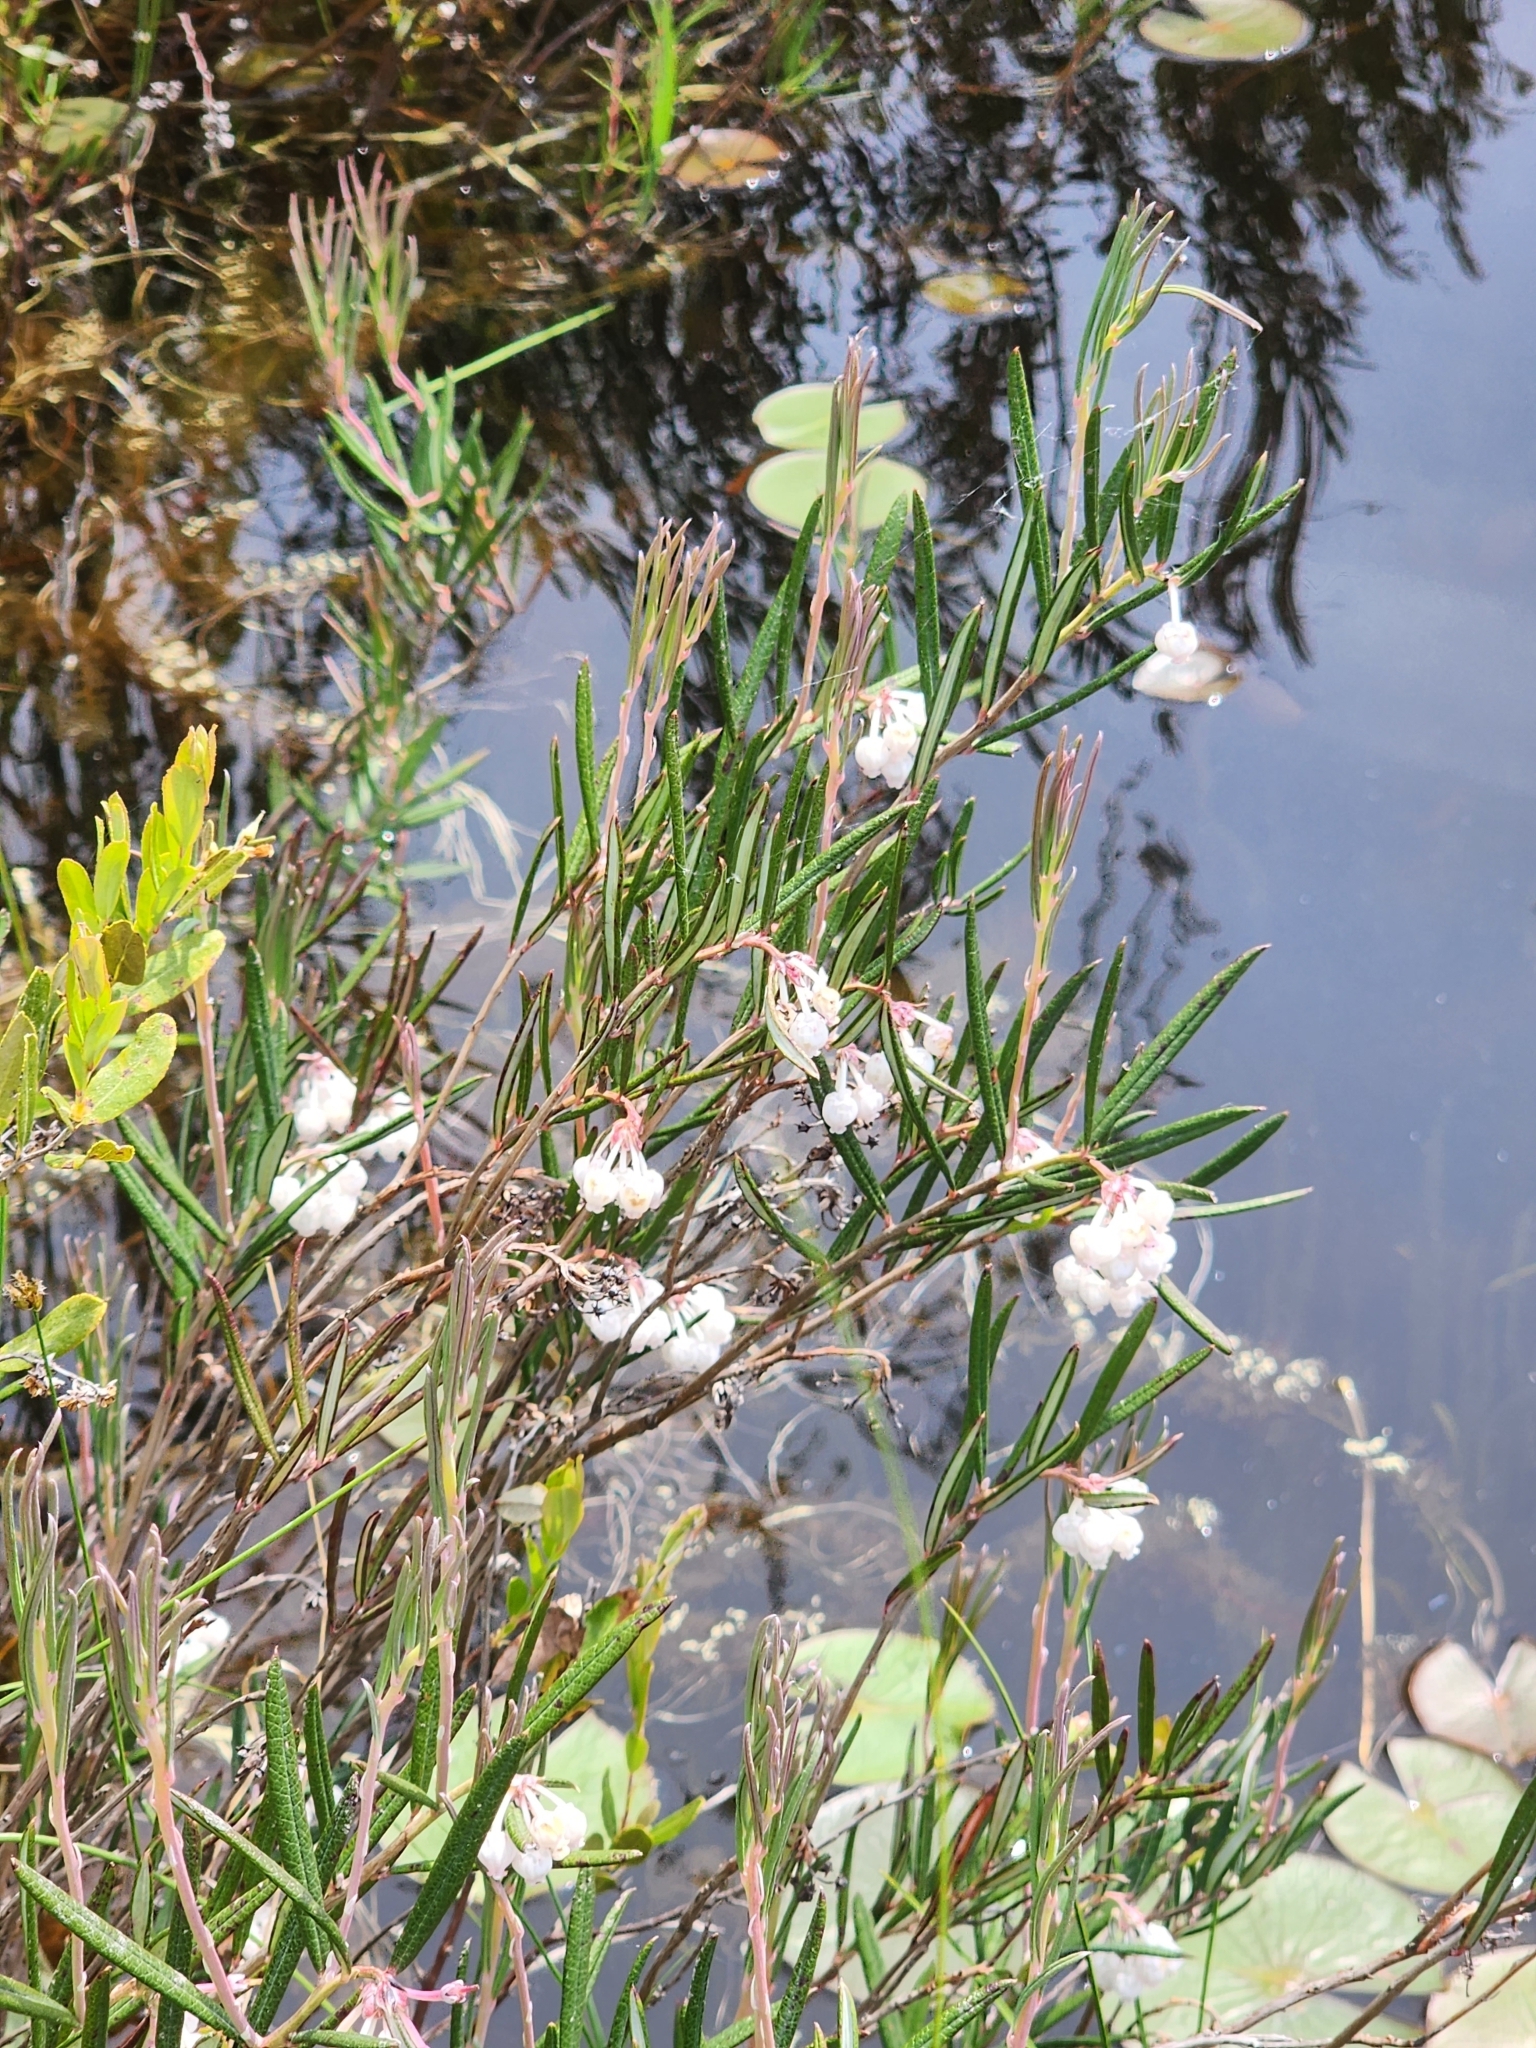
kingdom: Plantae
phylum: Tracheophyta
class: Magnoliopsida
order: Ericales
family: Ericaceae
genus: Andromeda
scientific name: Andromeda polifolia
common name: Bog-rosemary
